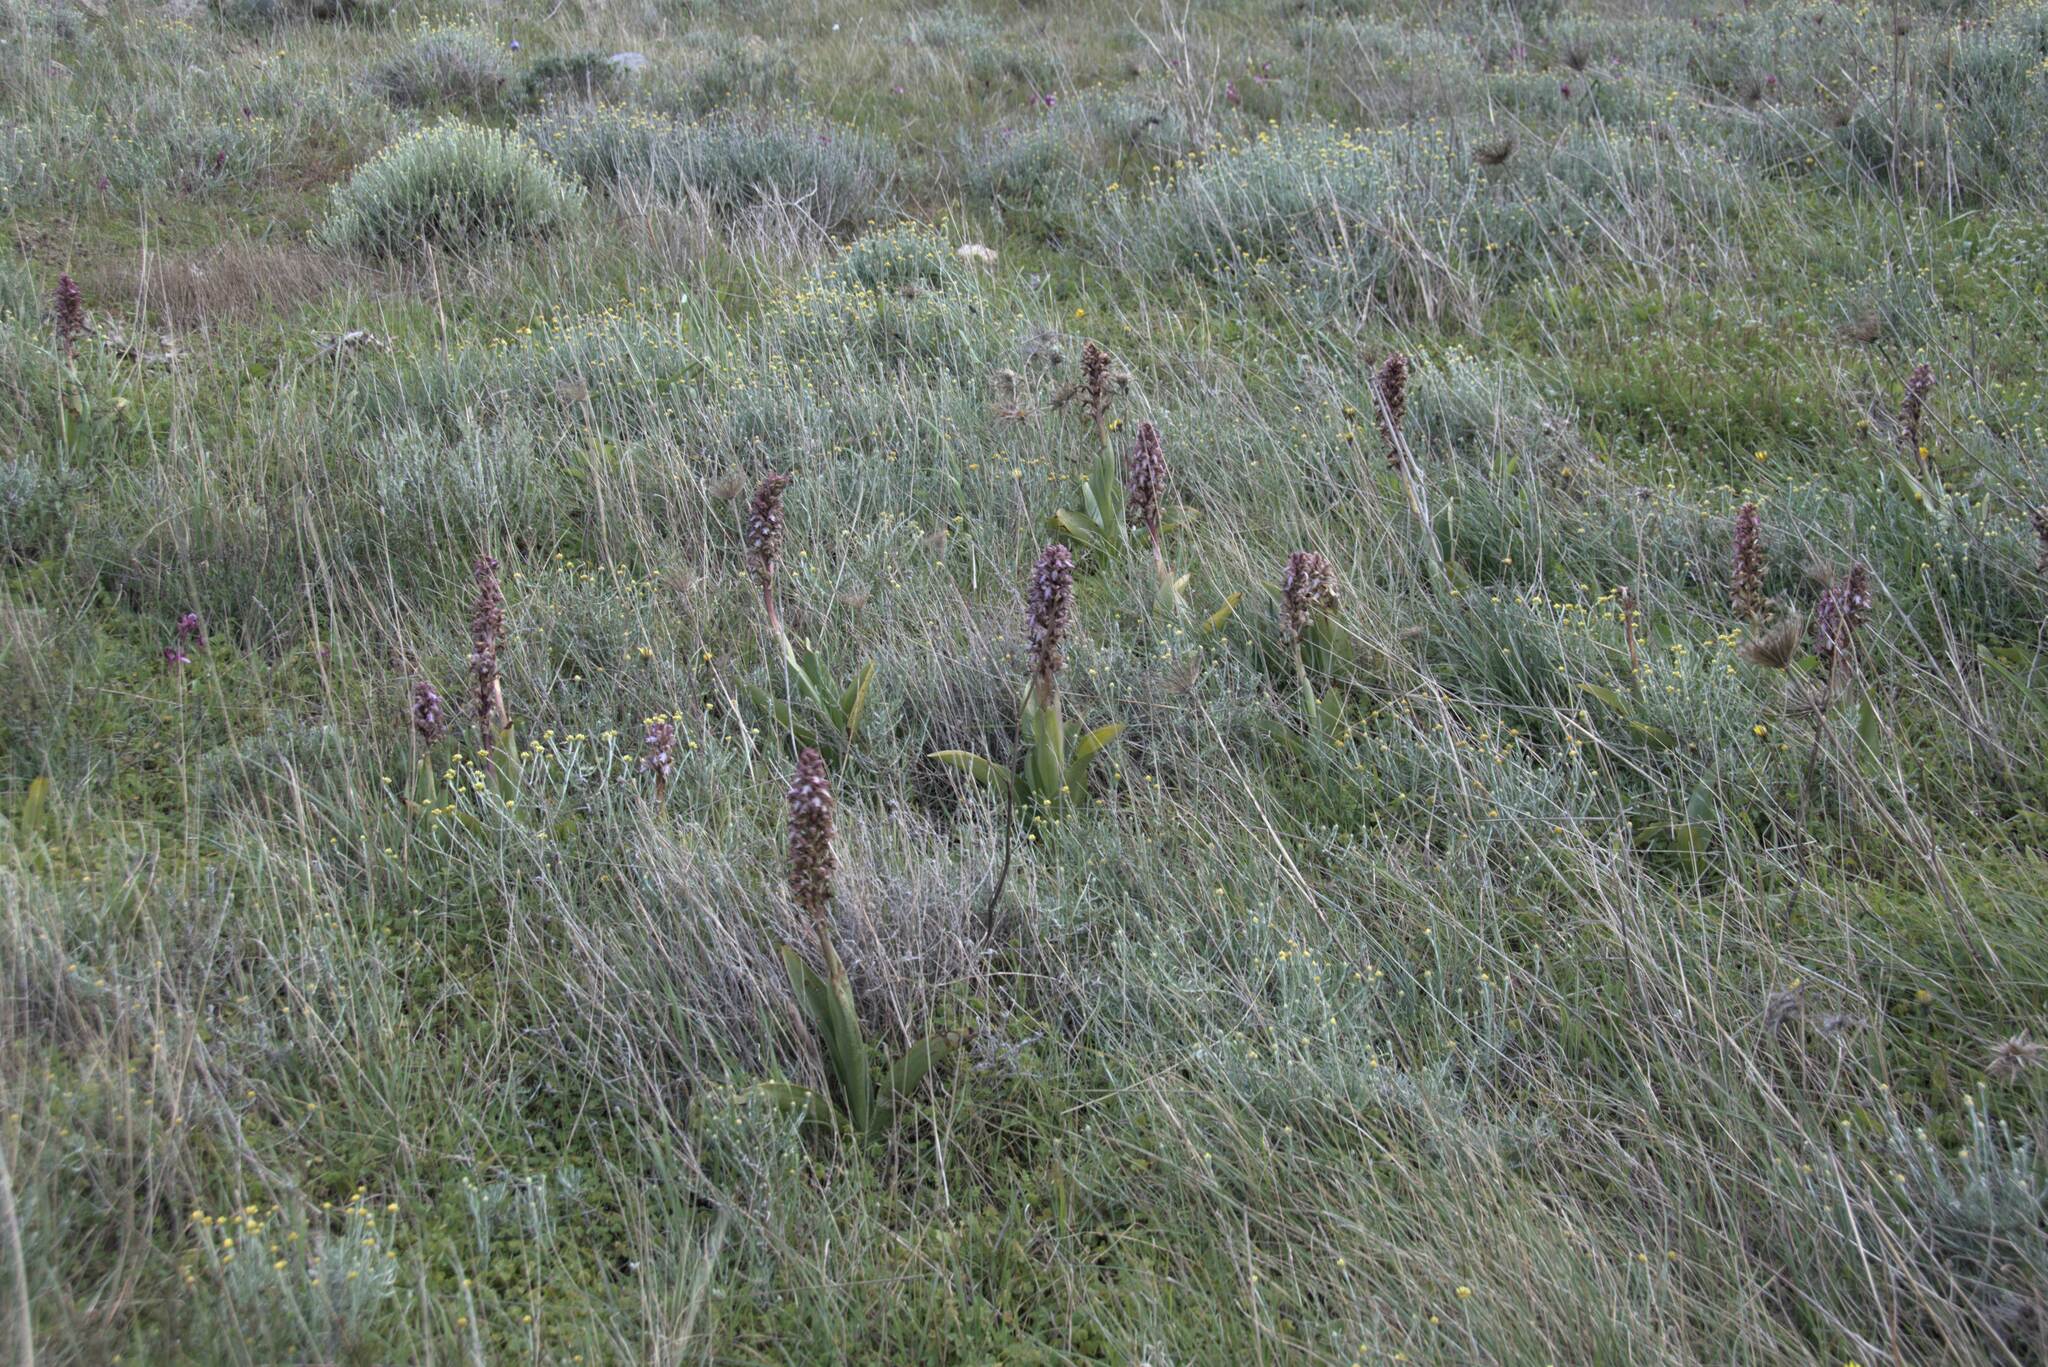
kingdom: Plantae
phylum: Tracheophyta
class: Liliopsida
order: Asparagales
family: Orchidaceae
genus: Himantoglossum
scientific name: Himantoglossum robertianum
